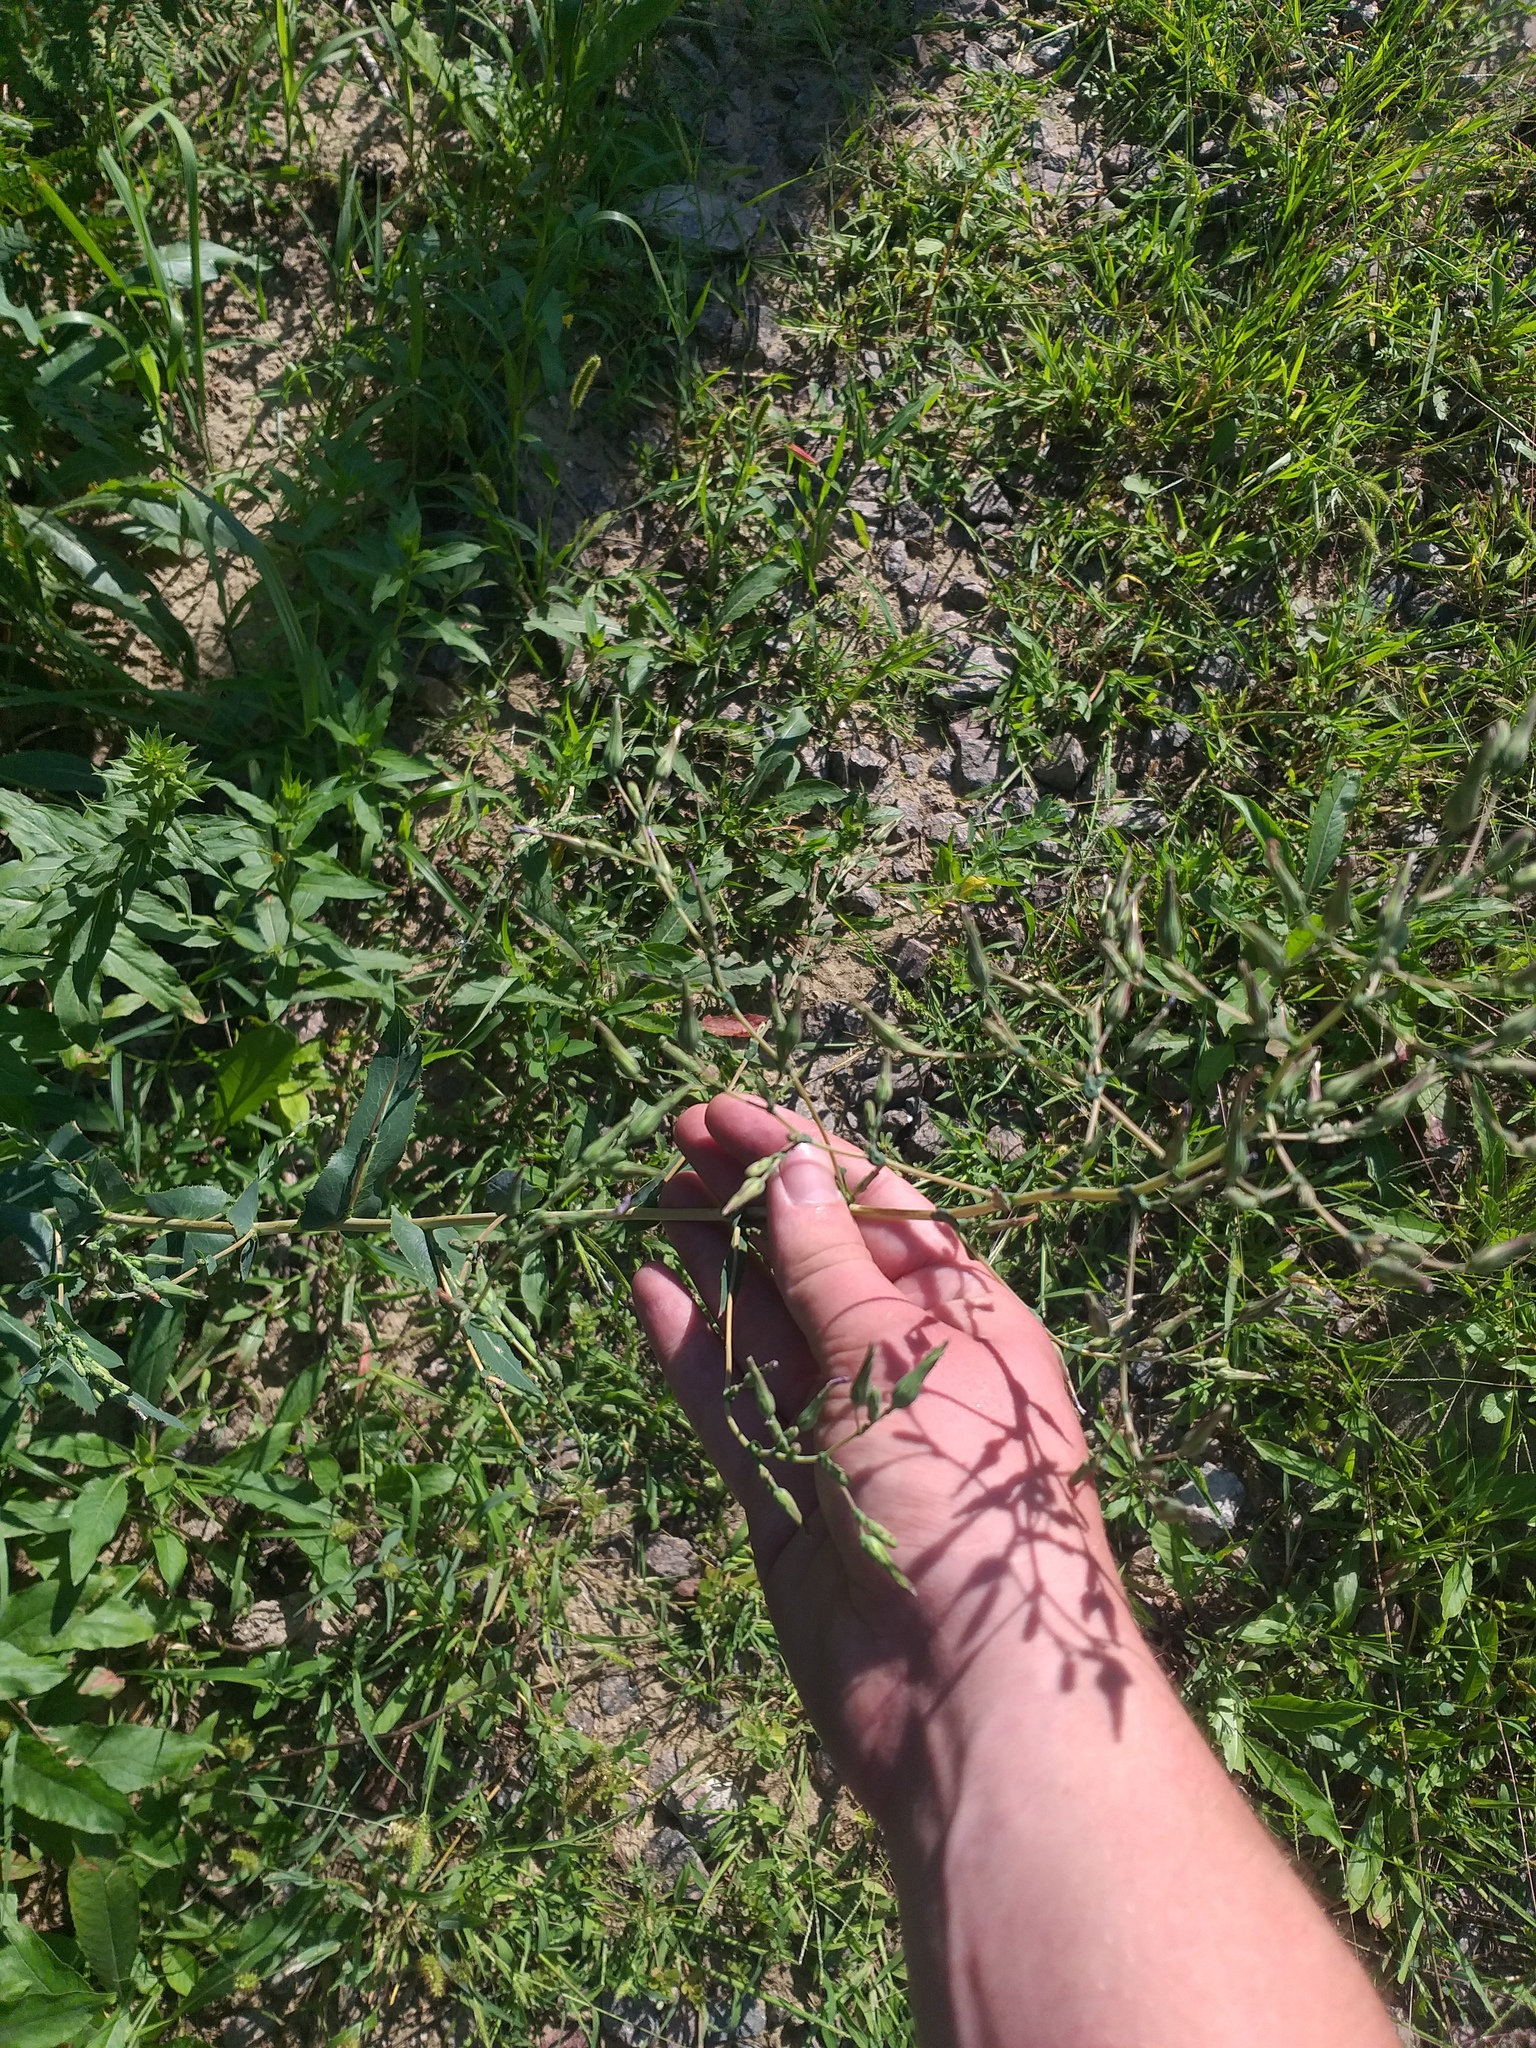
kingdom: Plantae
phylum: Tracheophyta
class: Magnoliopsida
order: Asterales
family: Asteraceae
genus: Lactuca
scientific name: Lactuca serriola
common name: Prickly lettuce
